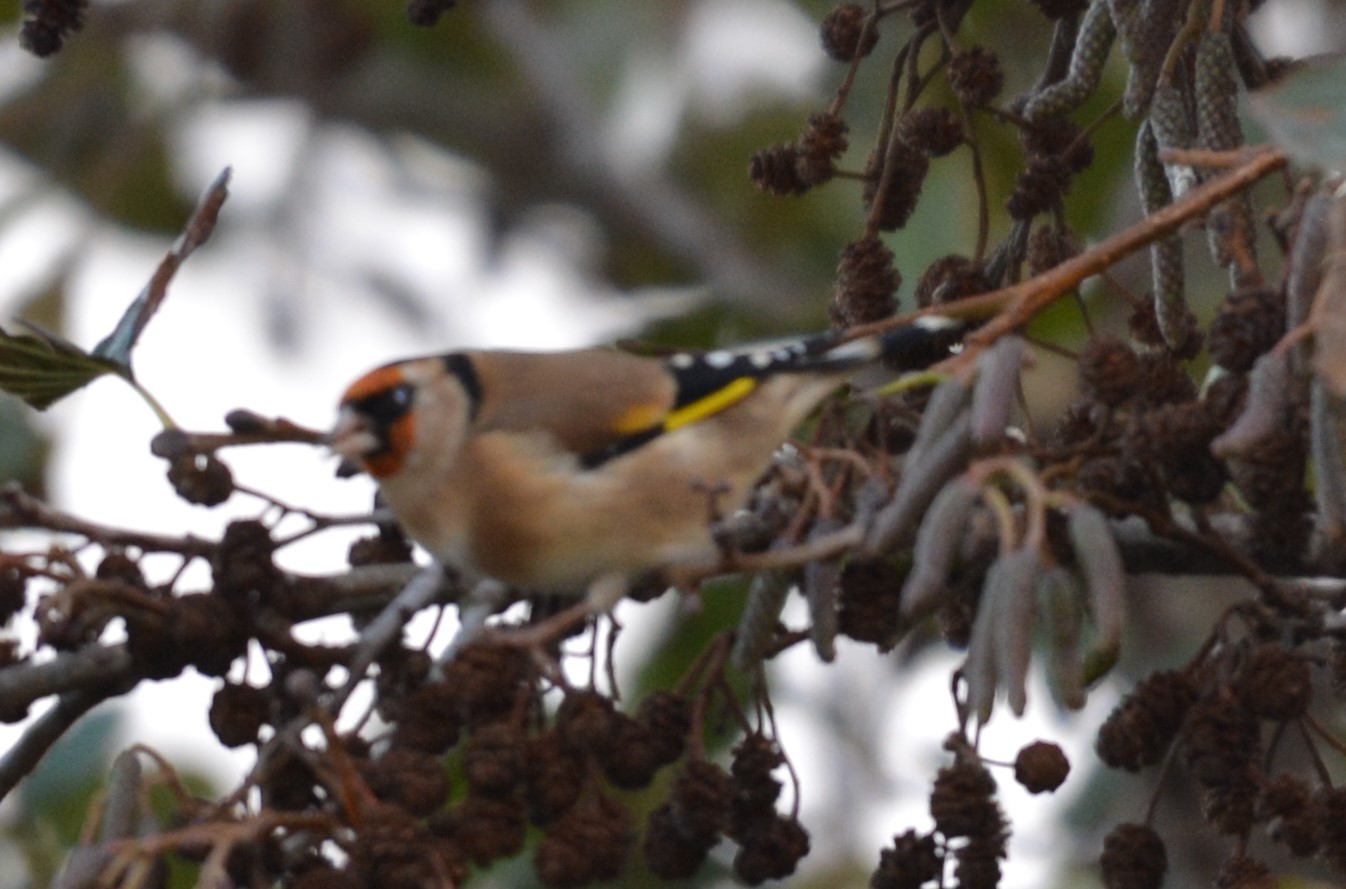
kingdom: Animalia
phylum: Chordata
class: Aves
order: Passeriformes
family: Fringillidae
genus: Carduelis
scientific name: Carduelis carduelis
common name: European goldfinch
